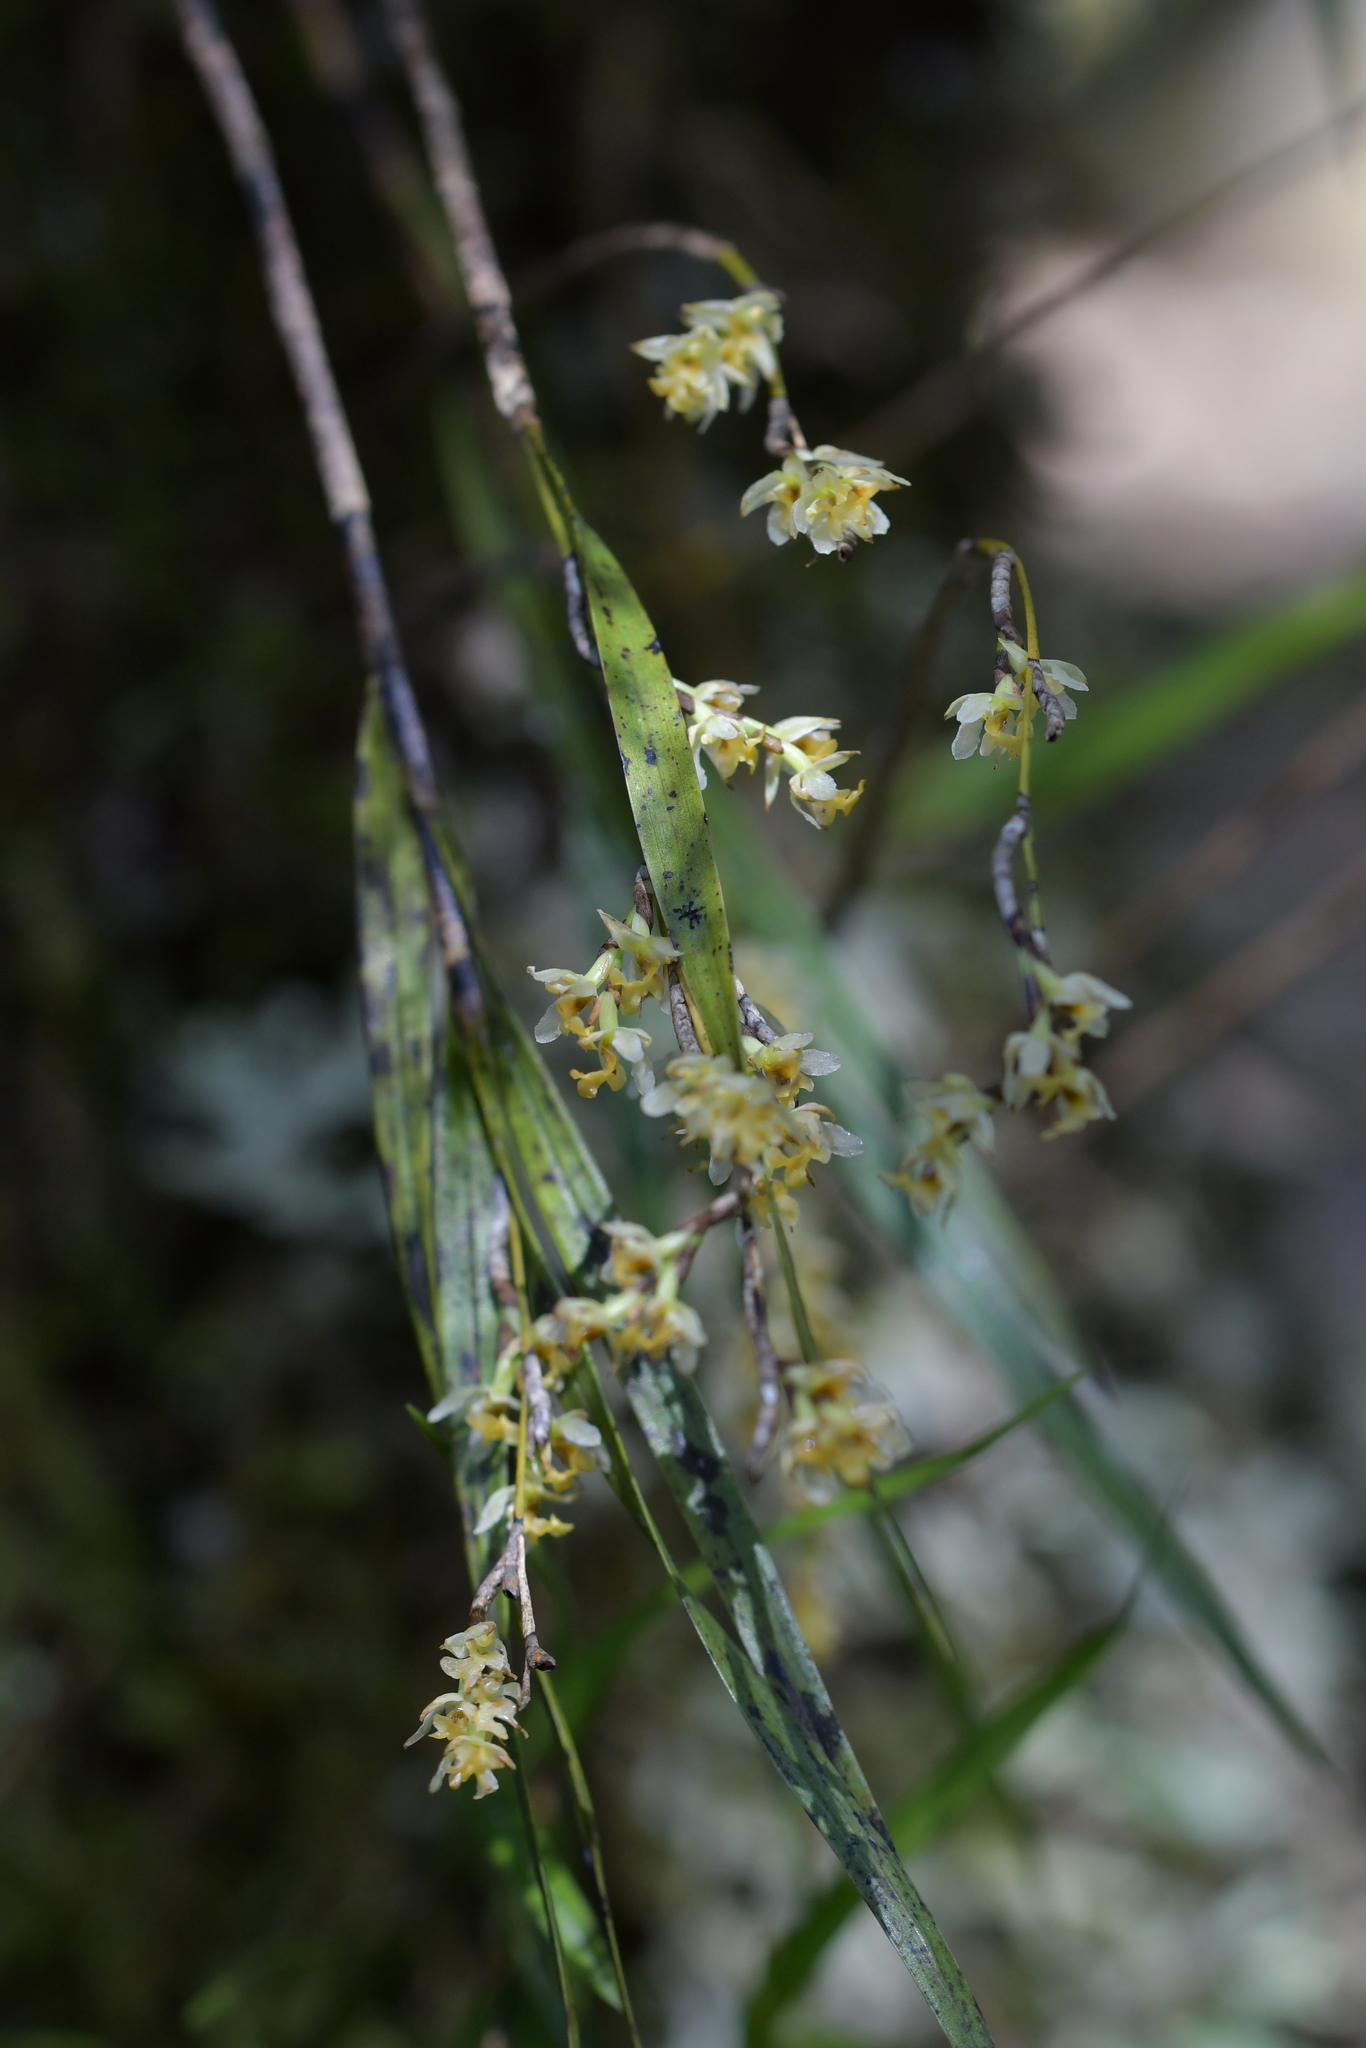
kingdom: Plantae
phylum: Tracheophyta
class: Liliopsida
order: Asparagales
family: Orchidaceae
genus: Earina
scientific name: Earina mucronata
